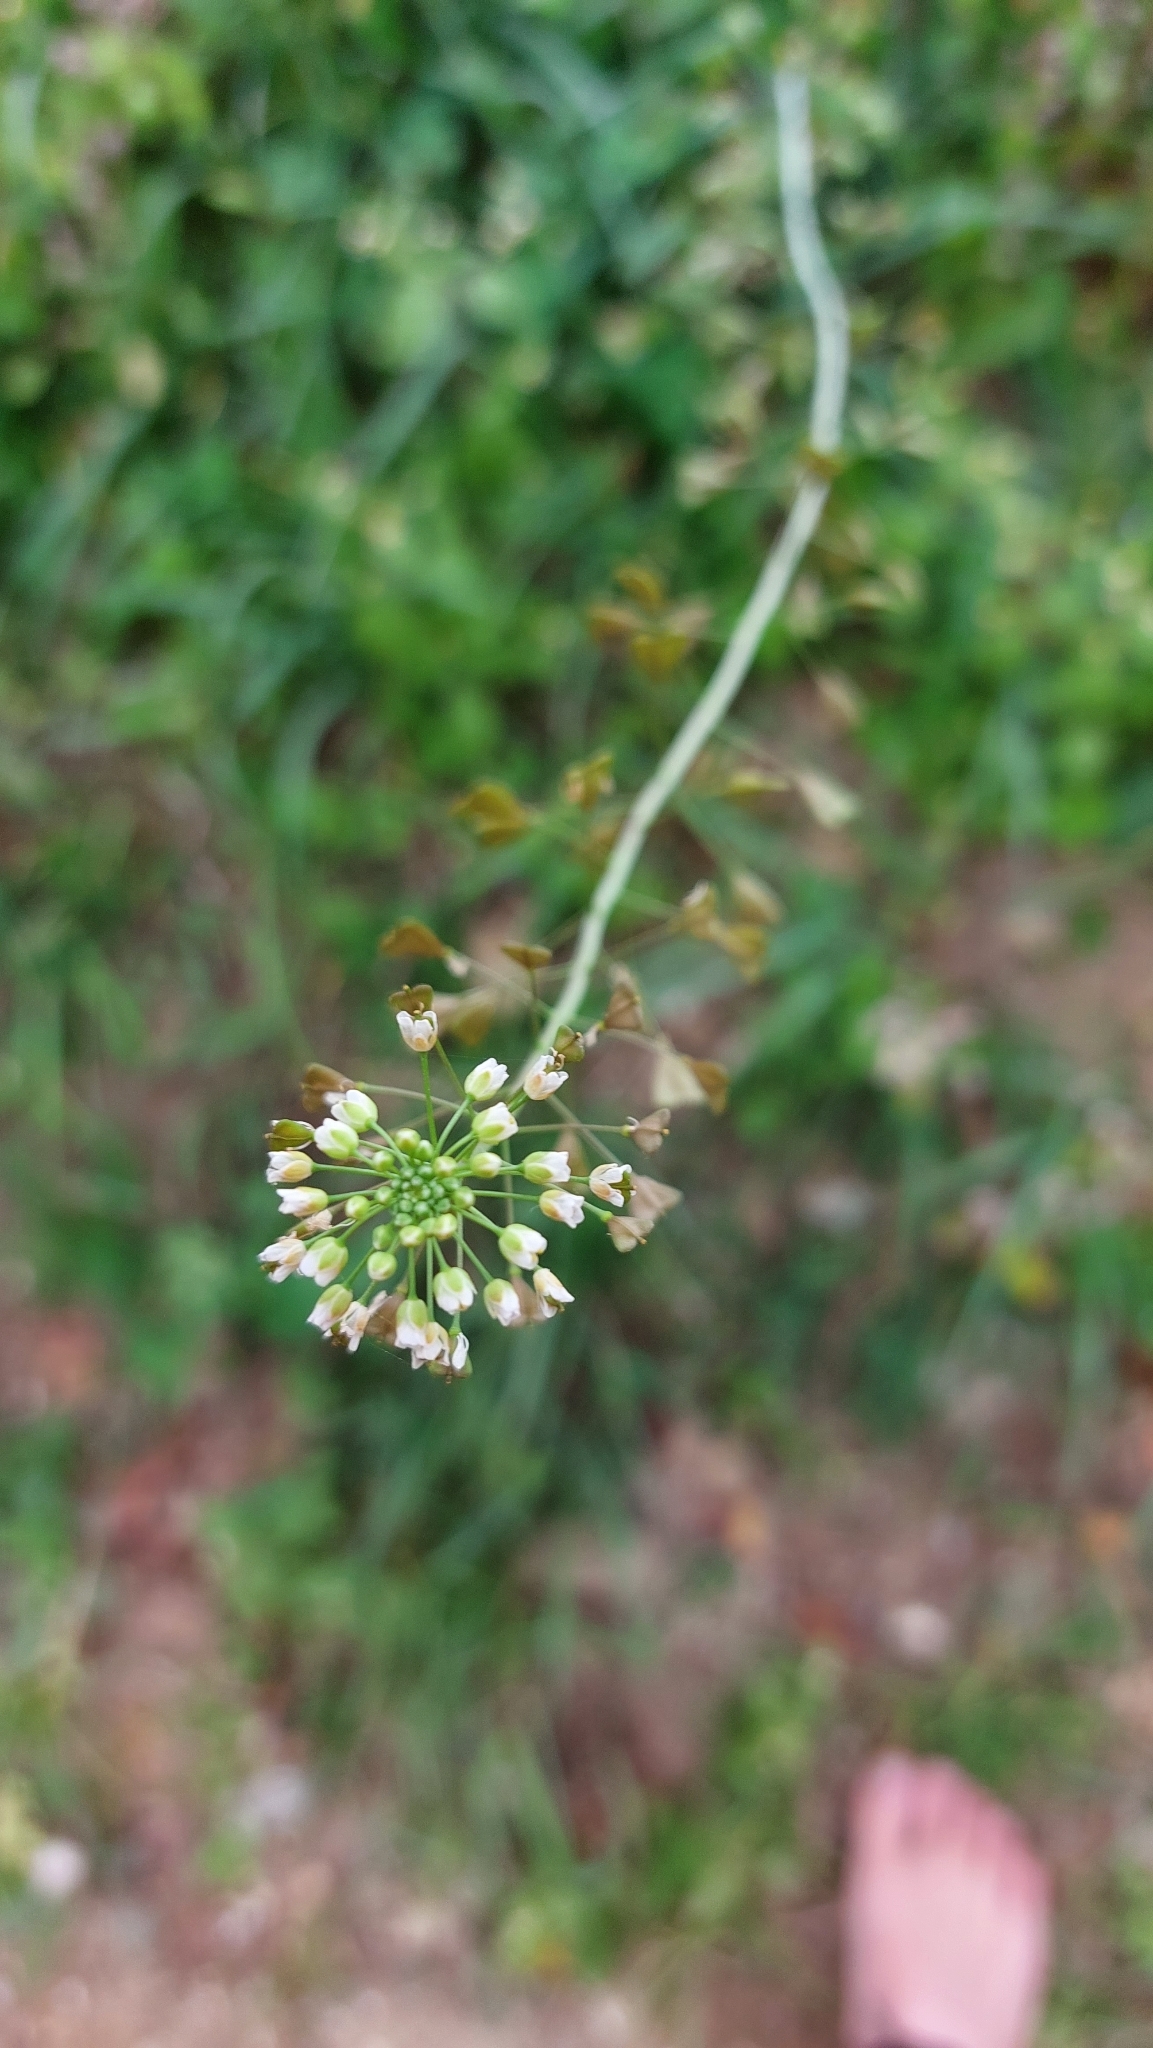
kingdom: Plantae
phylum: Tracheophyta
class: Magnoliopsida
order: Brassicales
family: Brassicaceae
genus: Capsella
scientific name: Capsella bursa-pastoris
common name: Shepherd's purse
